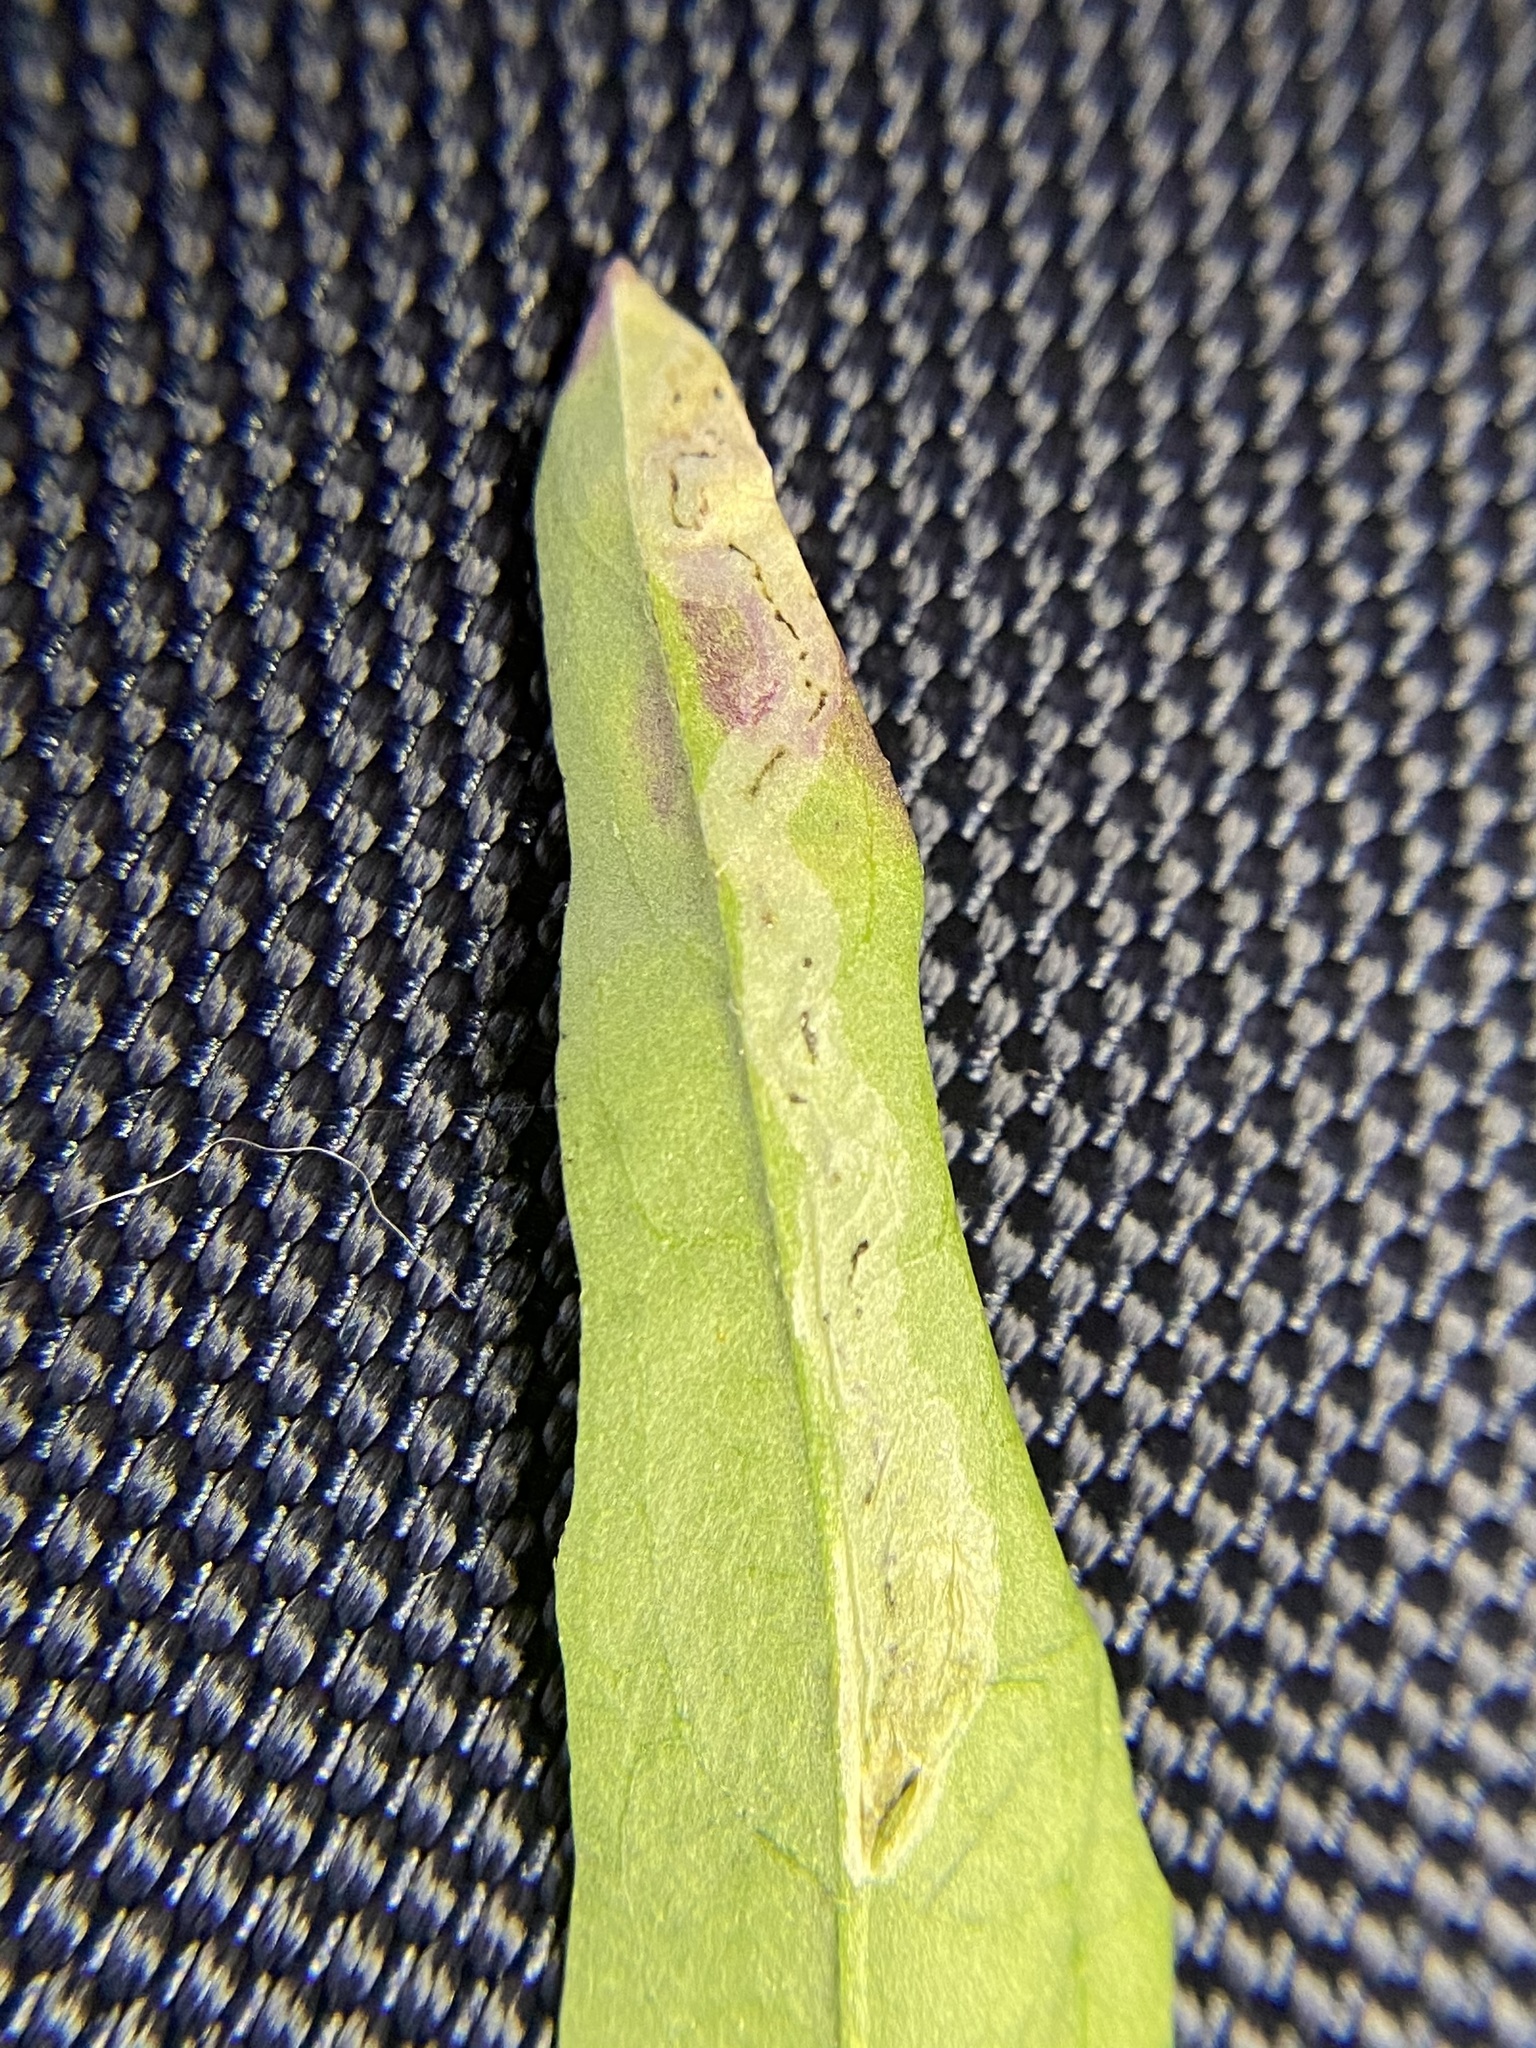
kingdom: Animalia
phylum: Arthropoda
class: Insecta
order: Diptera
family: Agromyzidae
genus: Liriomyza
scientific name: Liriomyza brassicae
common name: Serpentine leaf miner
